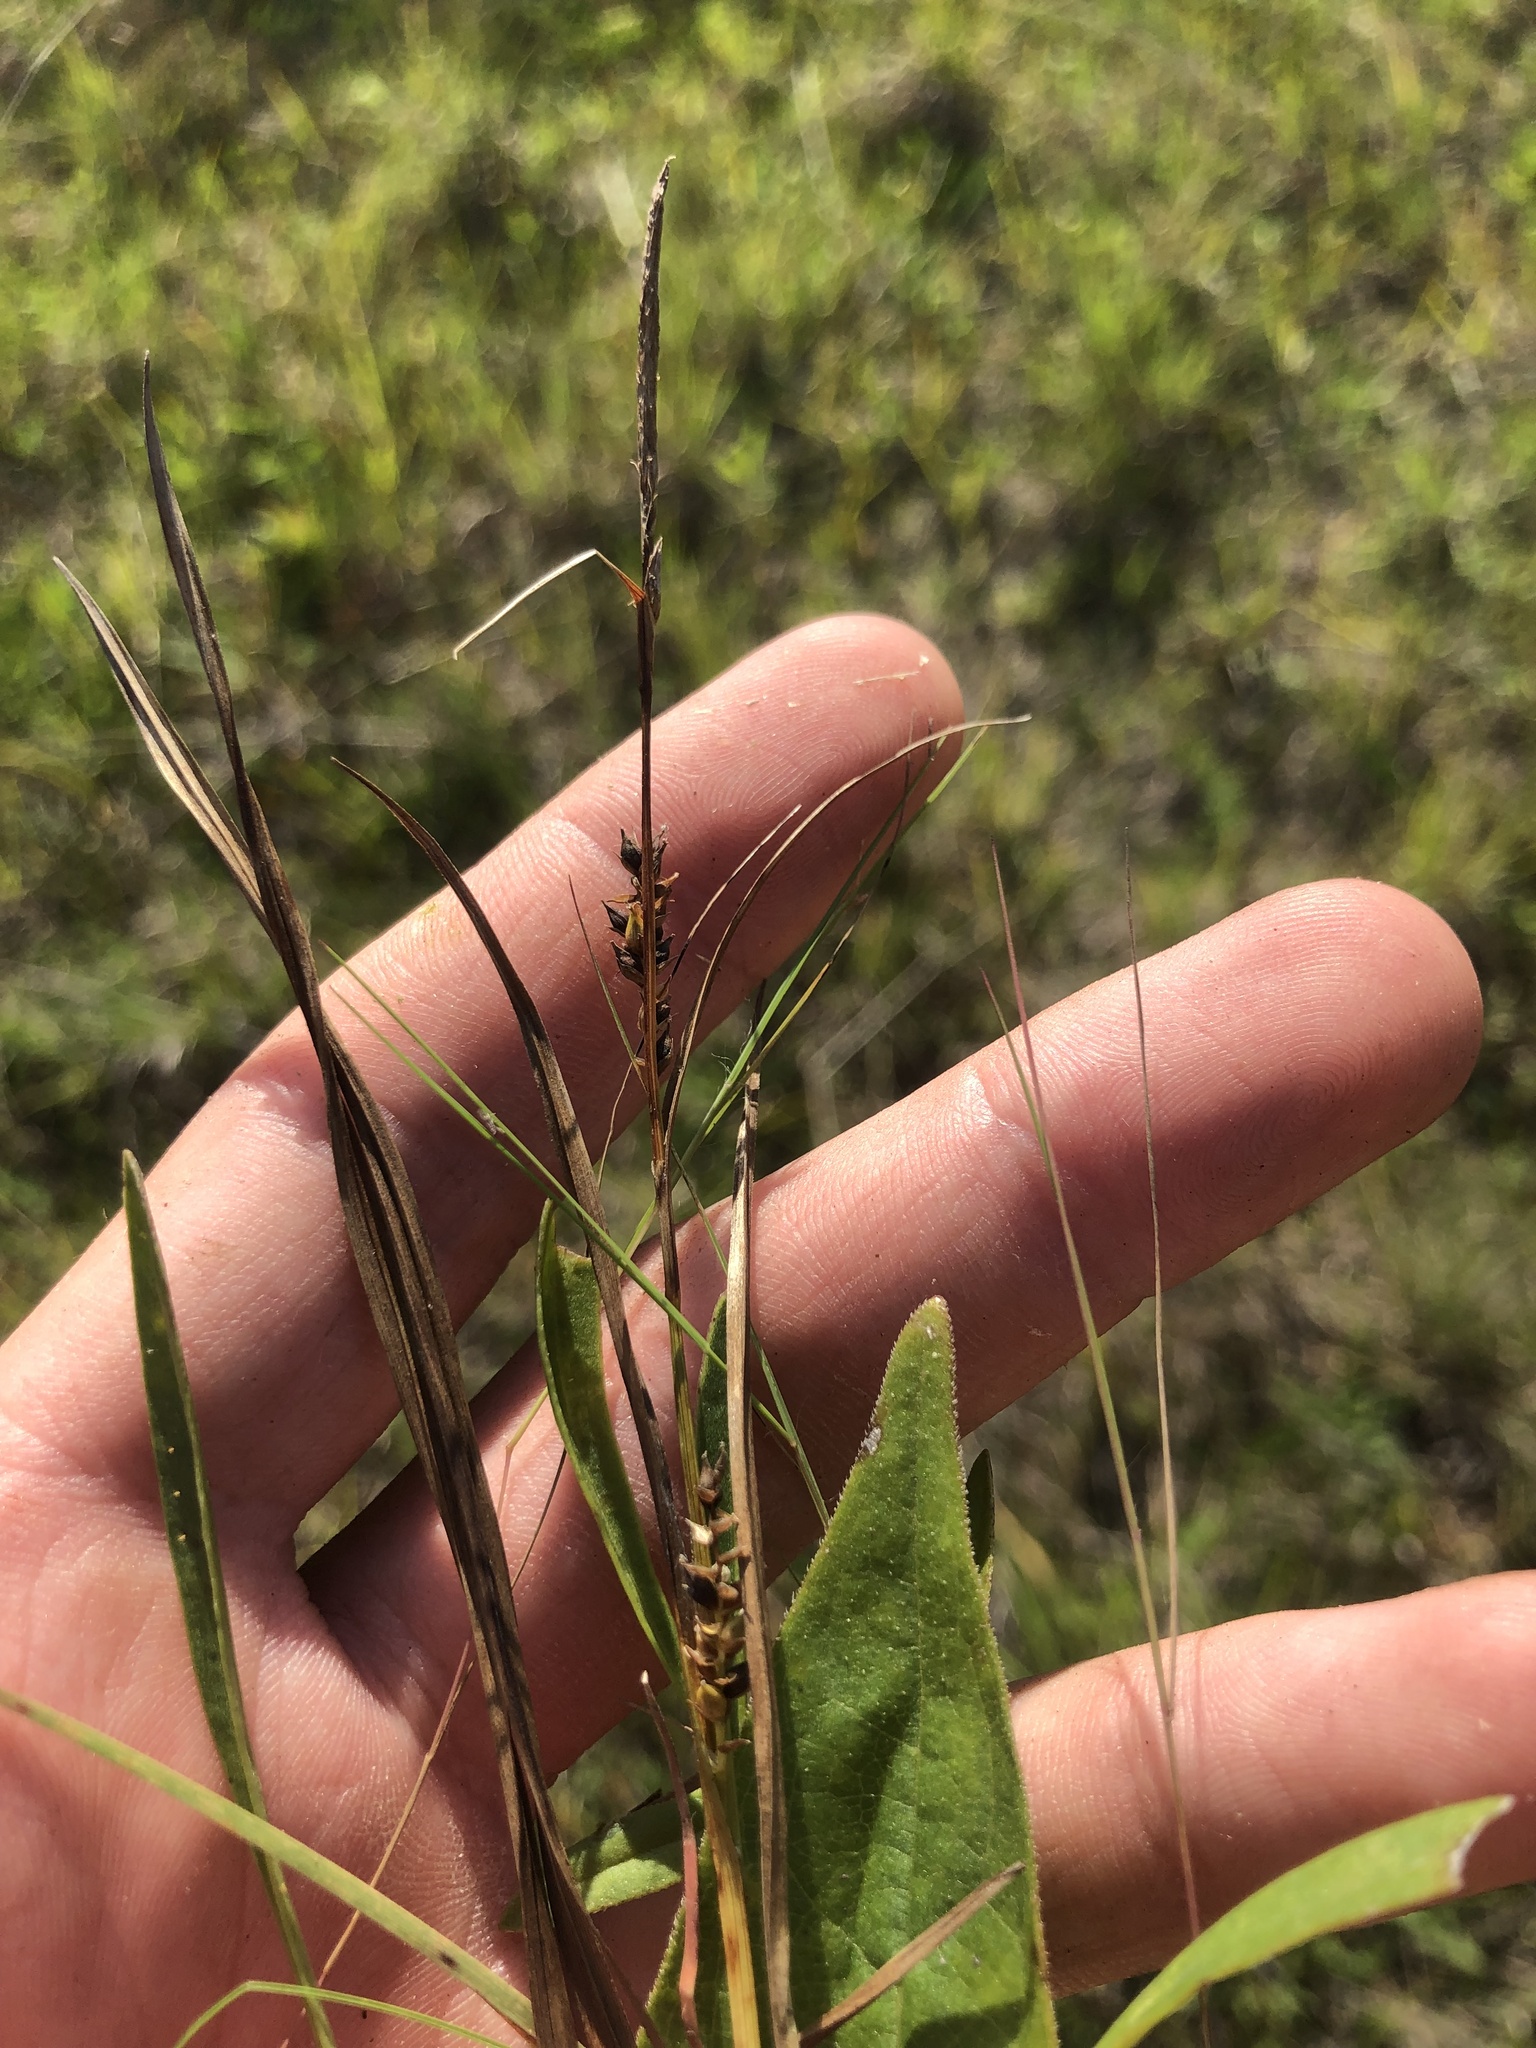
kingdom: Plantae
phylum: Tracheophyta
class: Liliopsida
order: Poales
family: Cyperaceae
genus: Carex
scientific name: Carex microdonta
